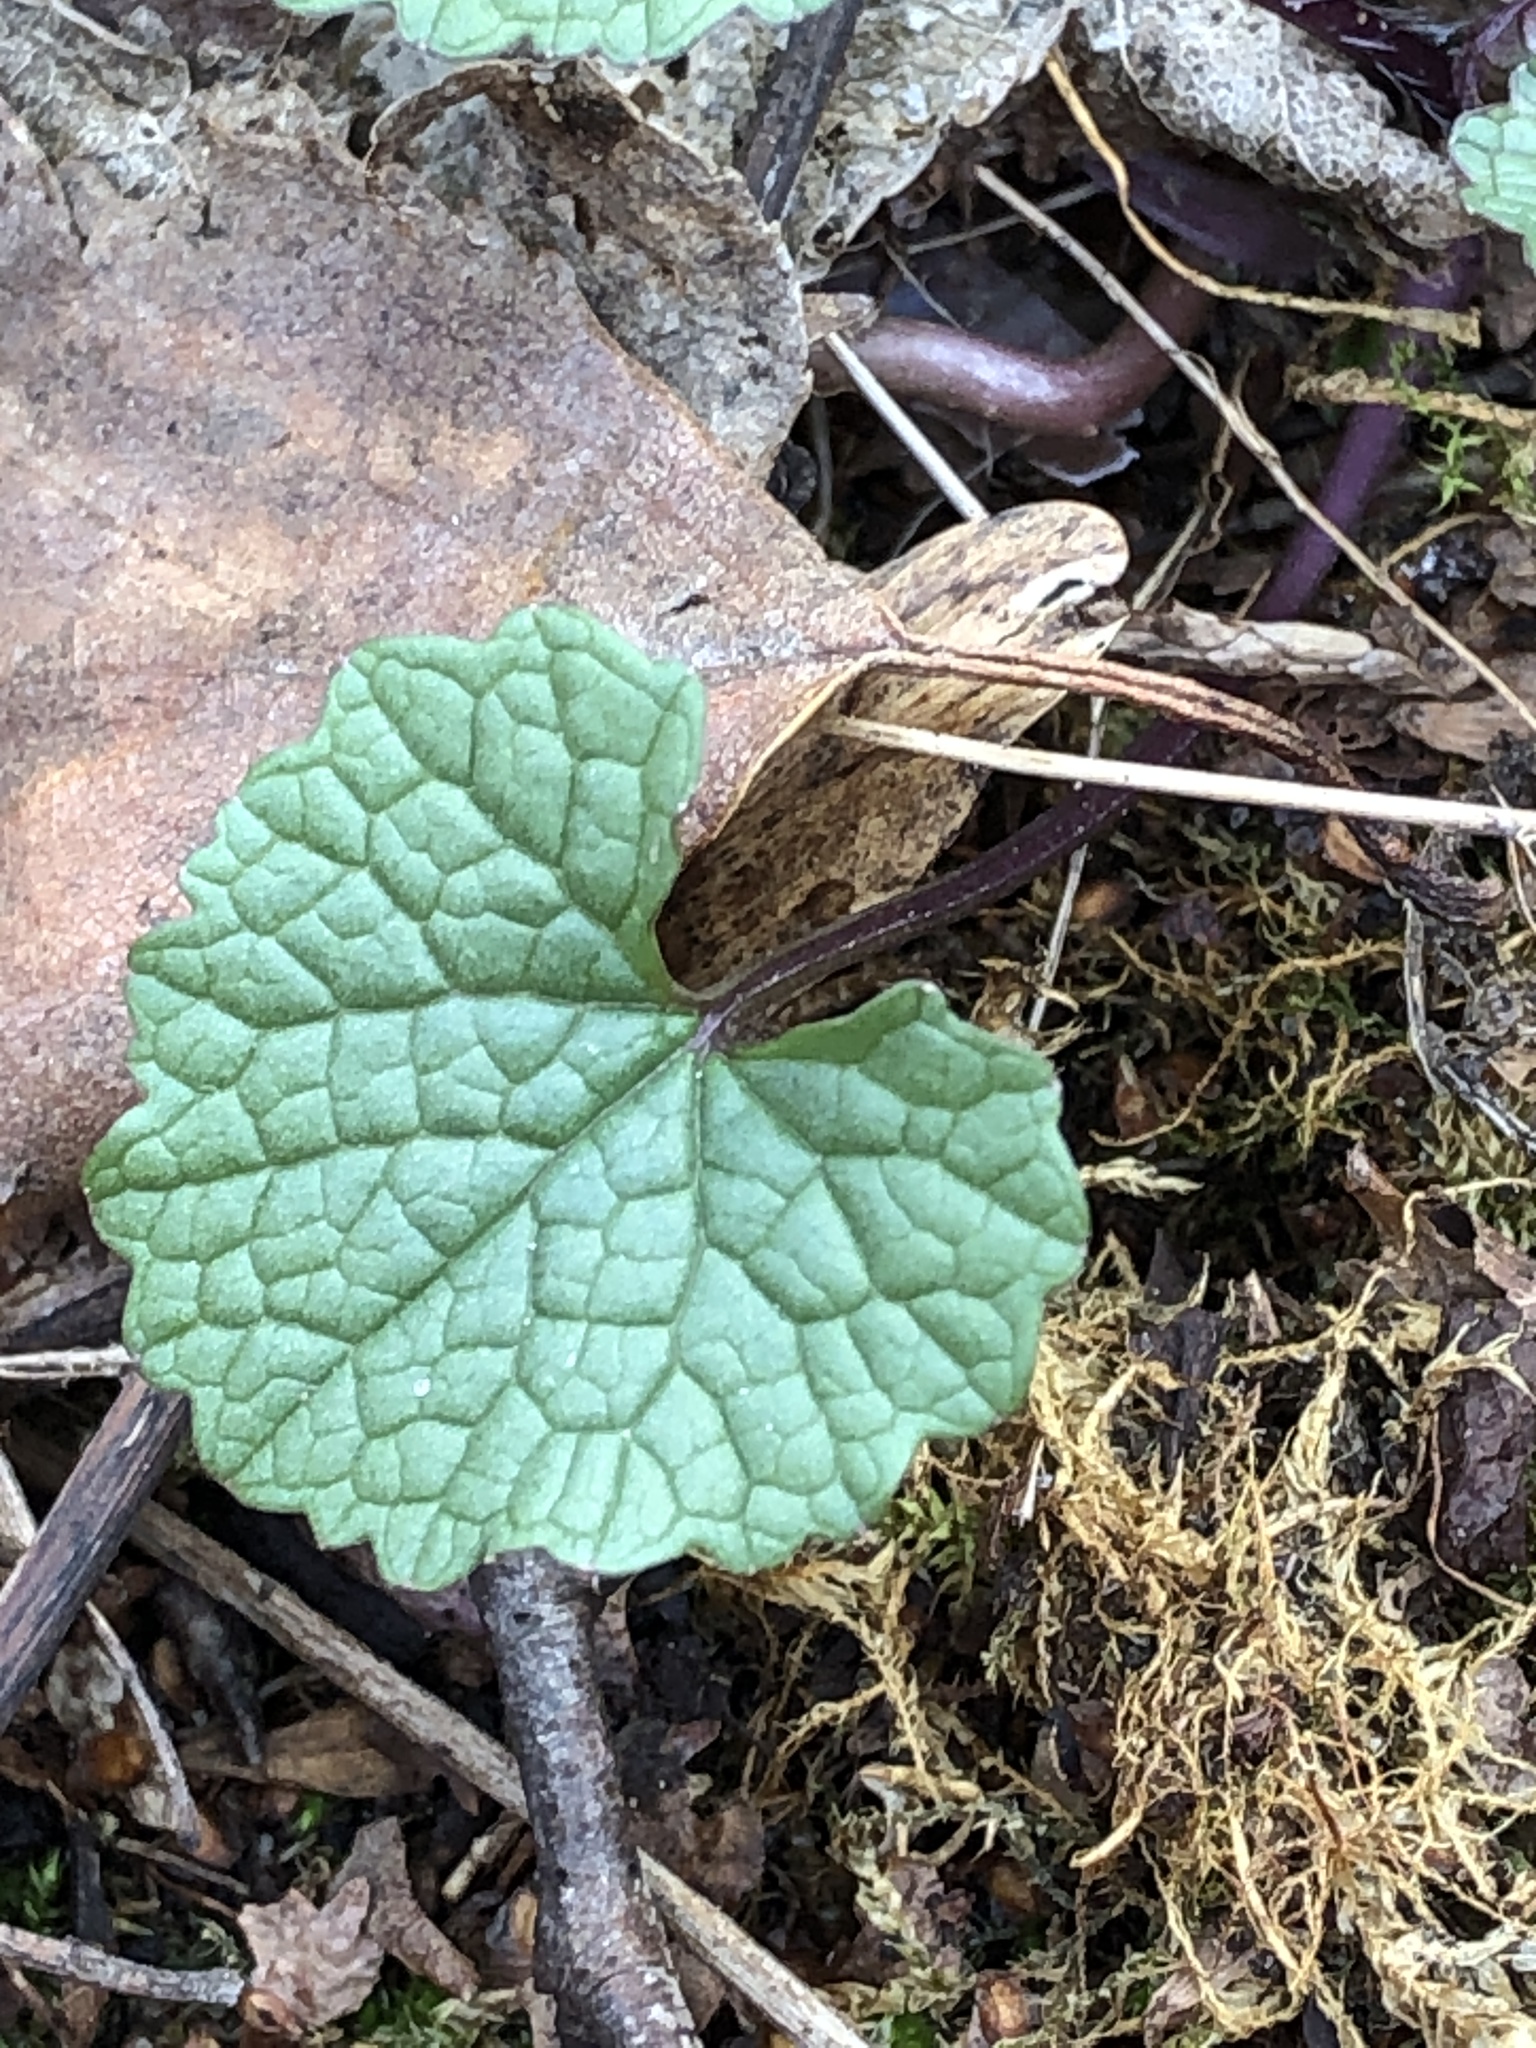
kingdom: Plantae
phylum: Tracheophyta
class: Magnoliopsida
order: Brassicales
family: Brassicaceae
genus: Alliaria
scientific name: Alliaria petiolata
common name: Garlic mustard
